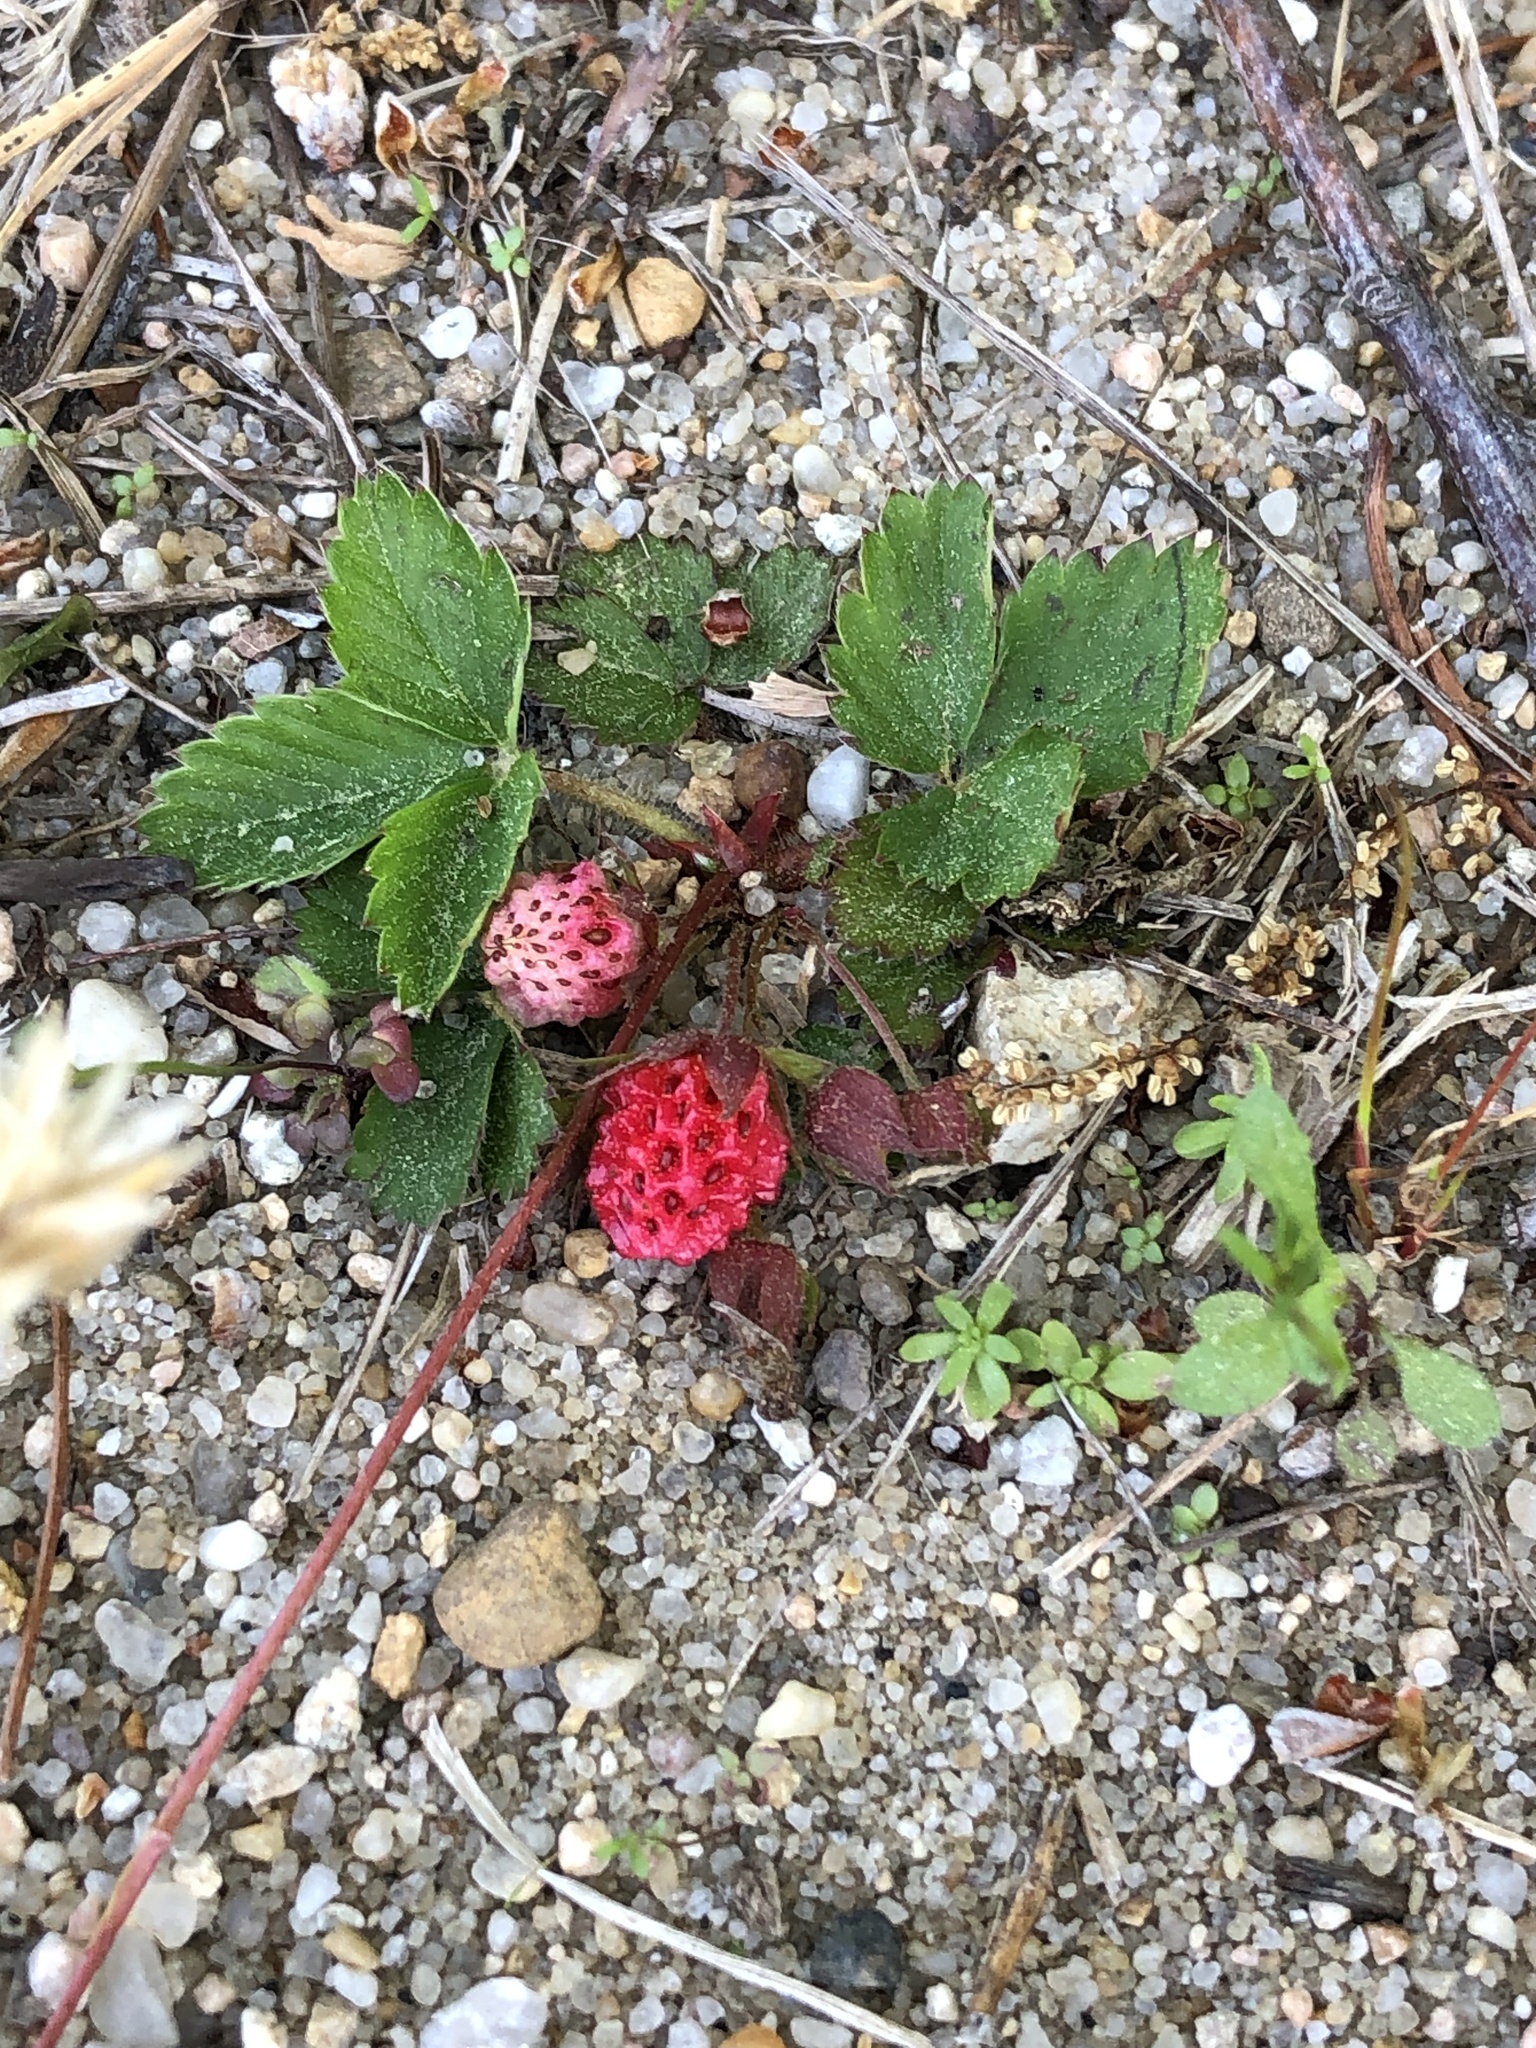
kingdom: Plantae
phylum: Tracheophyta
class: Magnoliopsida
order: Rosales
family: Rosaceae
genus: Fragaria
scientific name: Fragaria virginiana
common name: Thickleaved wild strawberry
